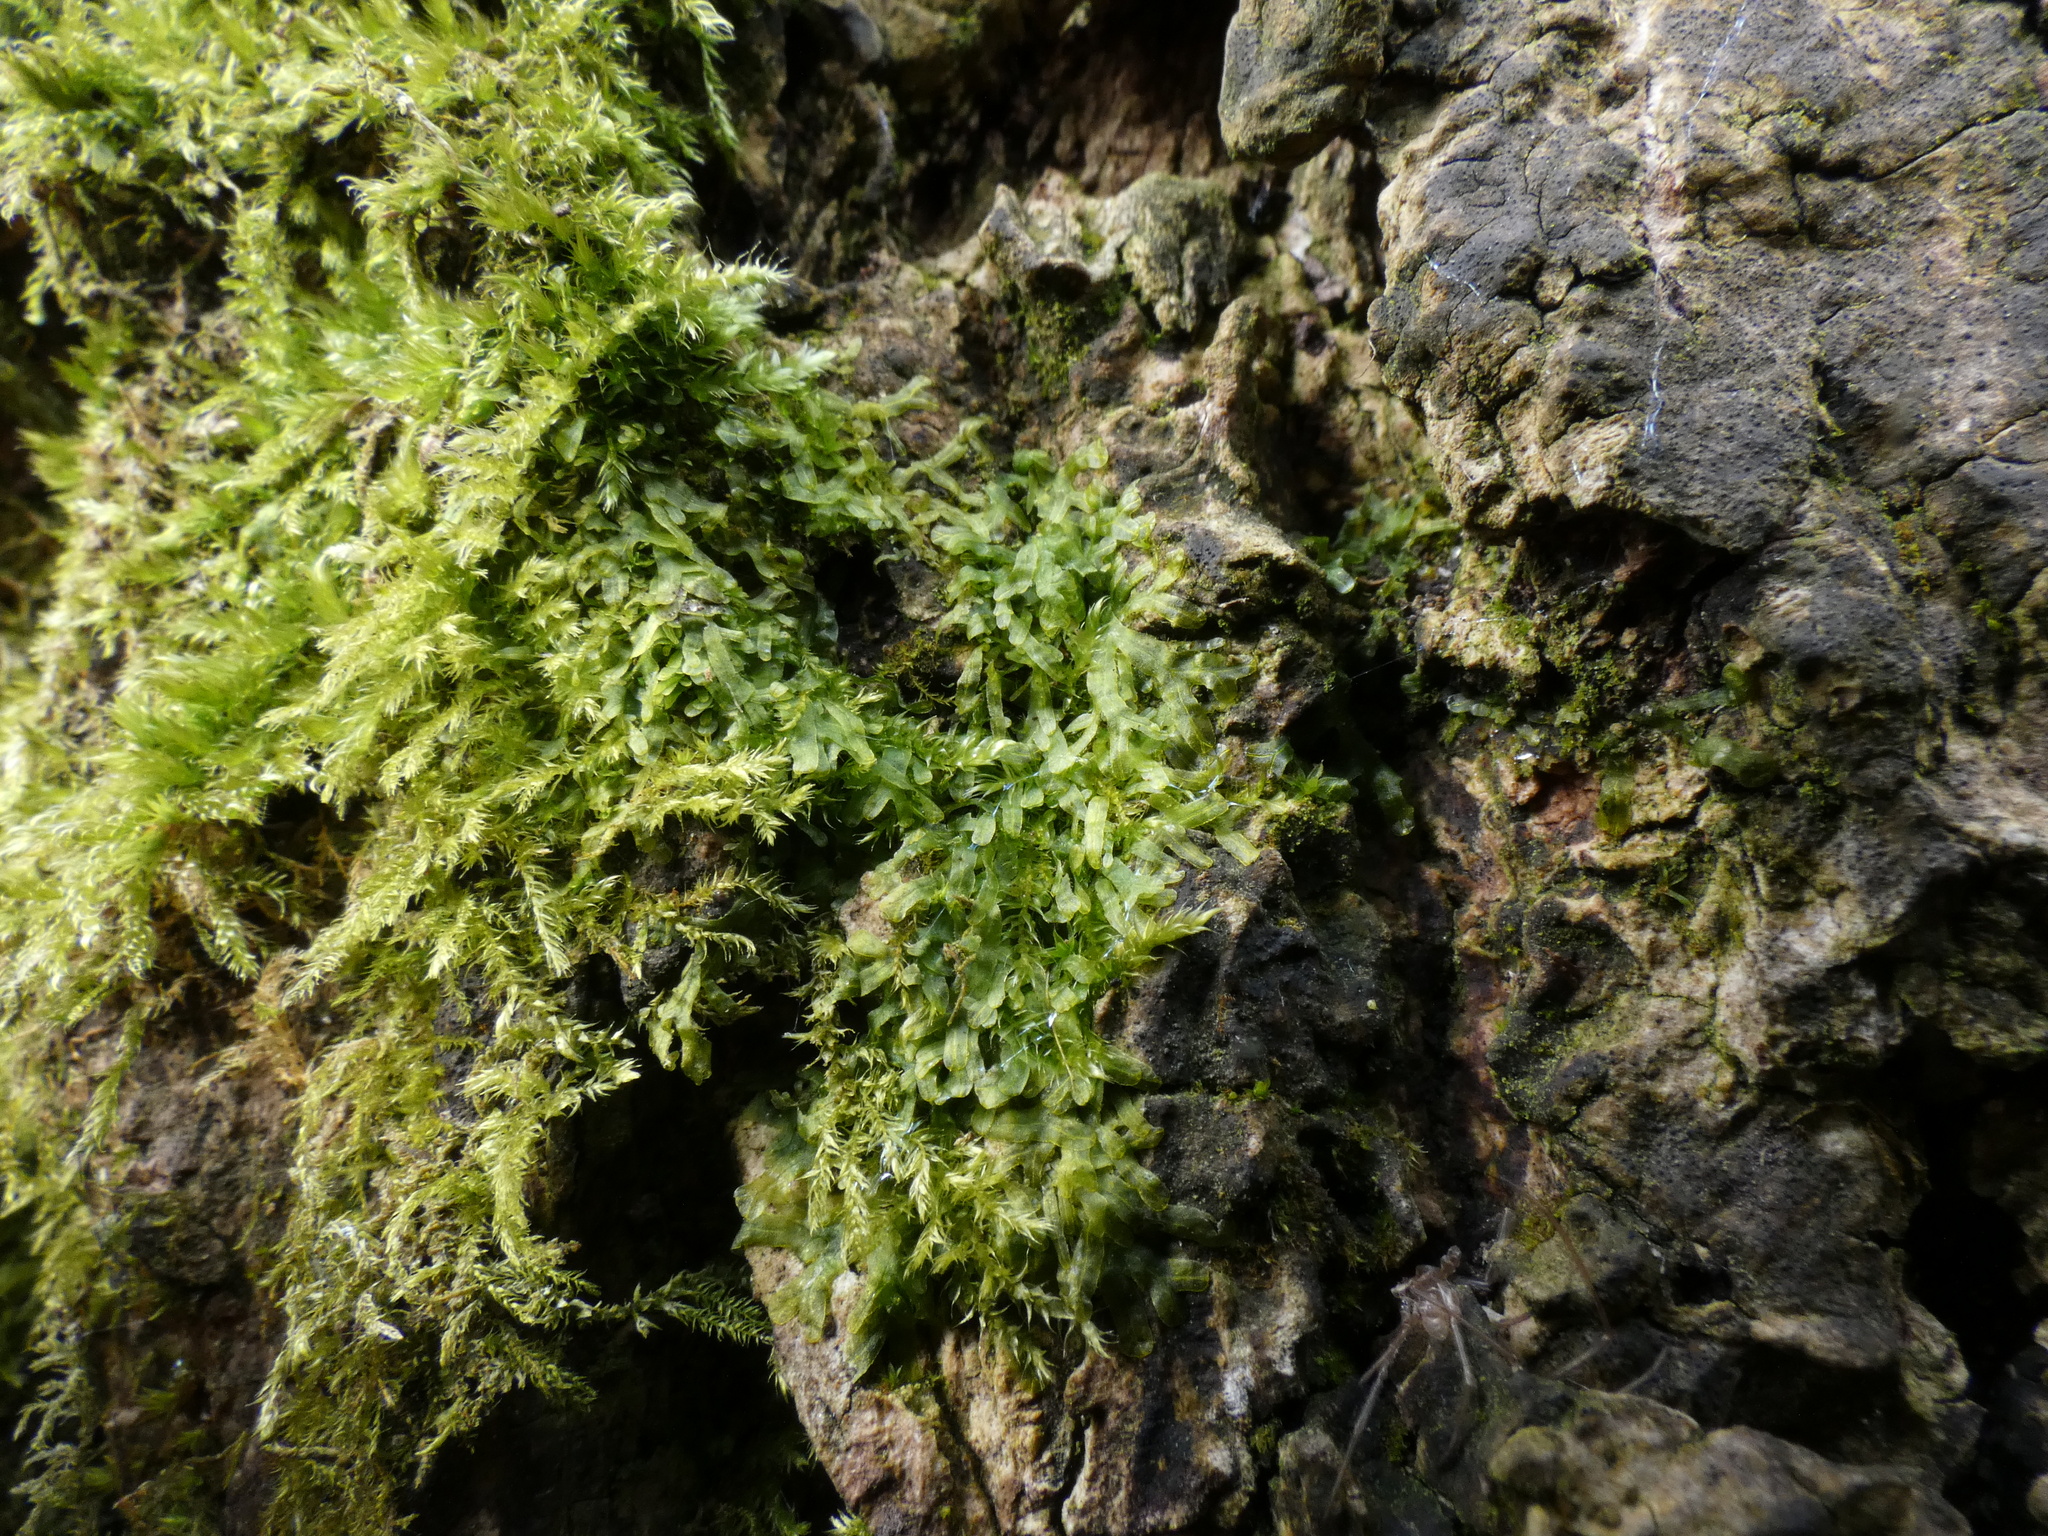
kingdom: Plantae
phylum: Marchantiophyta
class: Jungermanniopsida
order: Metzgeriales
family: Metzgeriaceae
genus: Metzgeria
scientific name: Metzgeria furcata
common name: Forked veilwort
